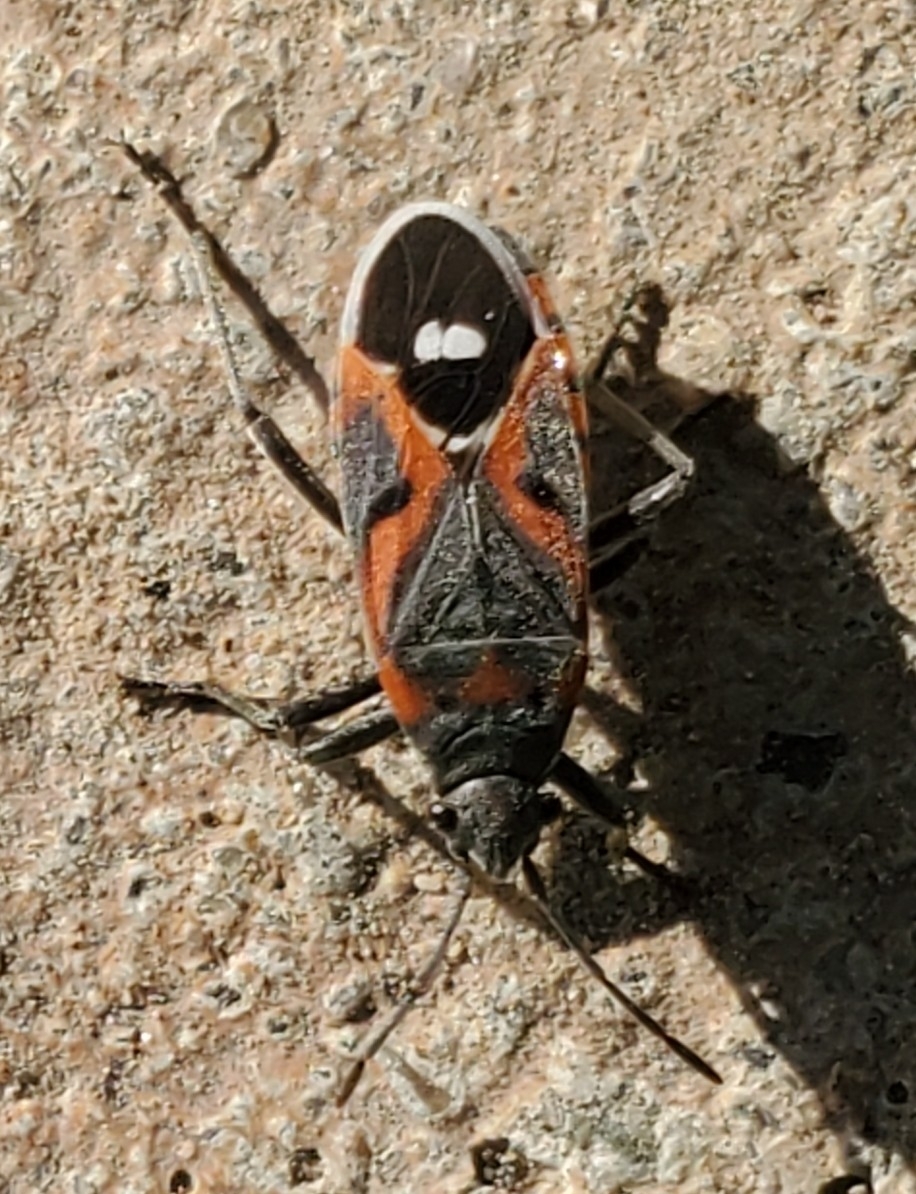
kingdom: Animalia
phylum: Arthropoda
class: Insecta
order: Hemiptera
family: Lygaeidae
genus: Lygaeus
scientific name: Lygaeus kalmii
